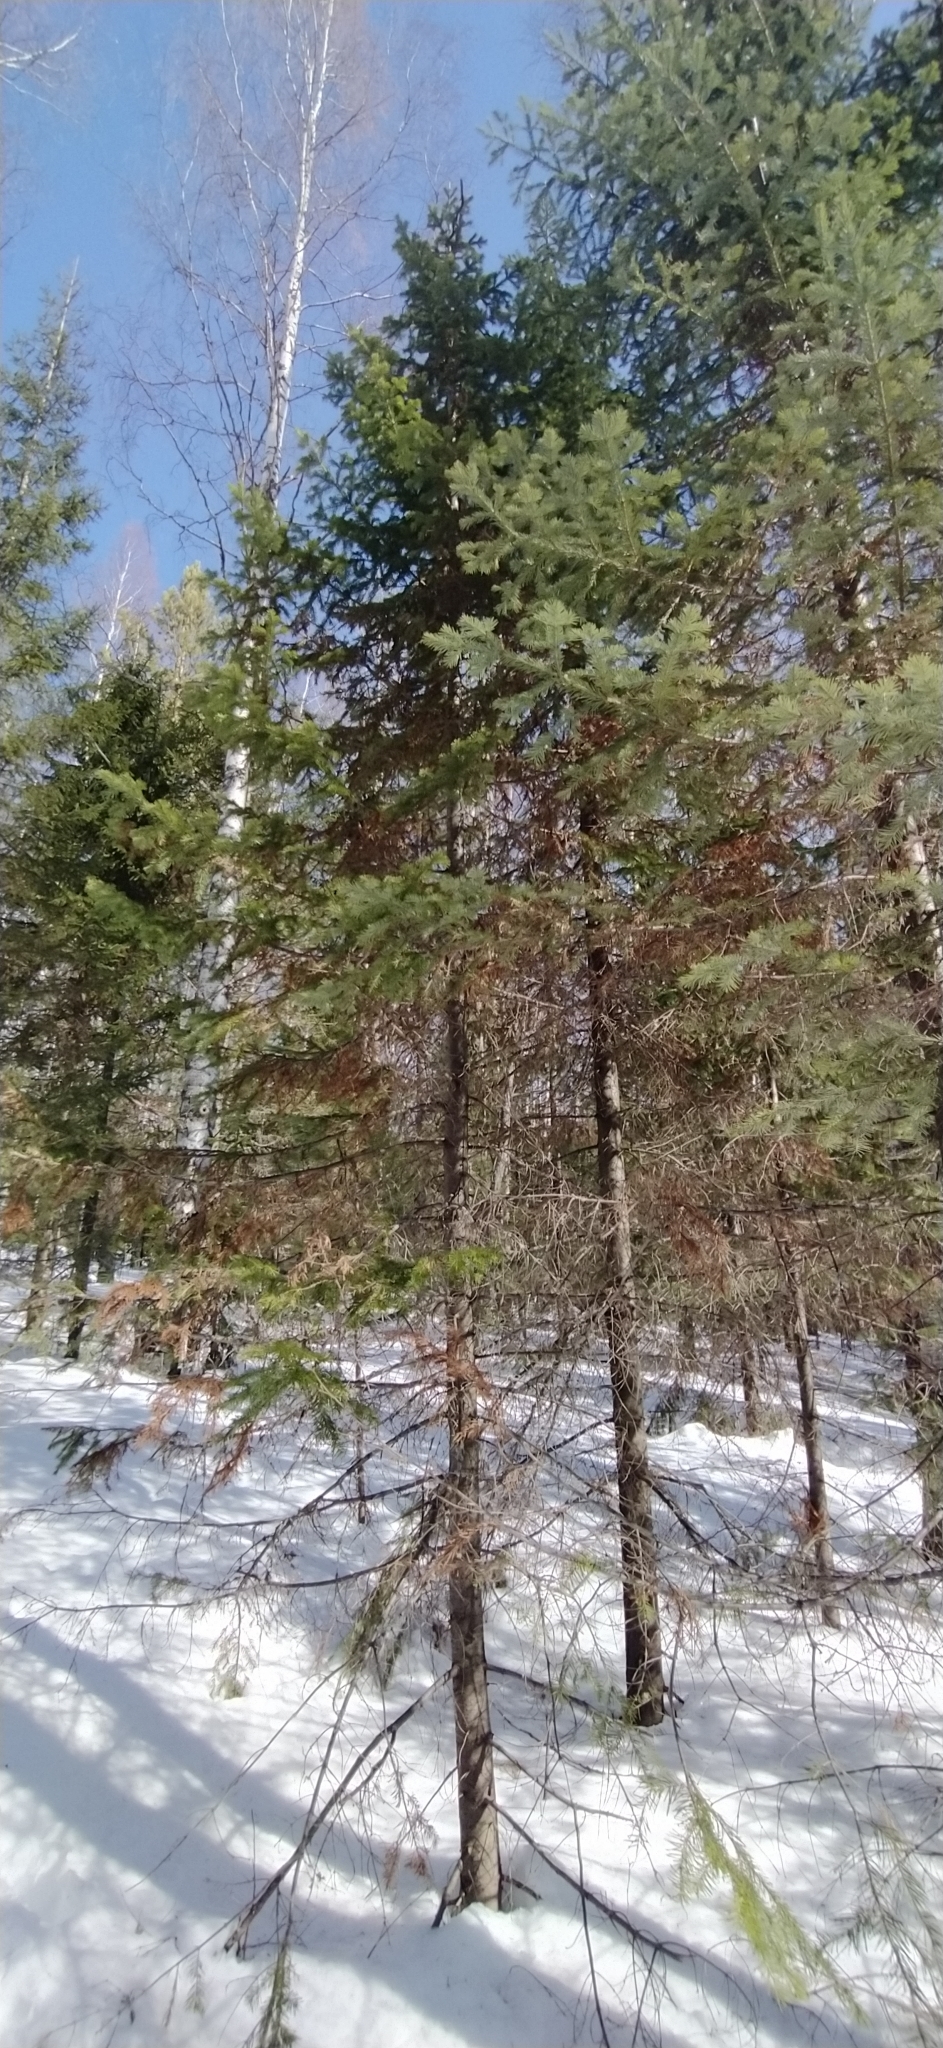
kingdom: Plantae
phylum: Tracheophyta
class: Pinopsida
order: Pinales
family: Pinaceae
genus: Abies
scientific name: Abies sibirica
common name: Siberian fir
